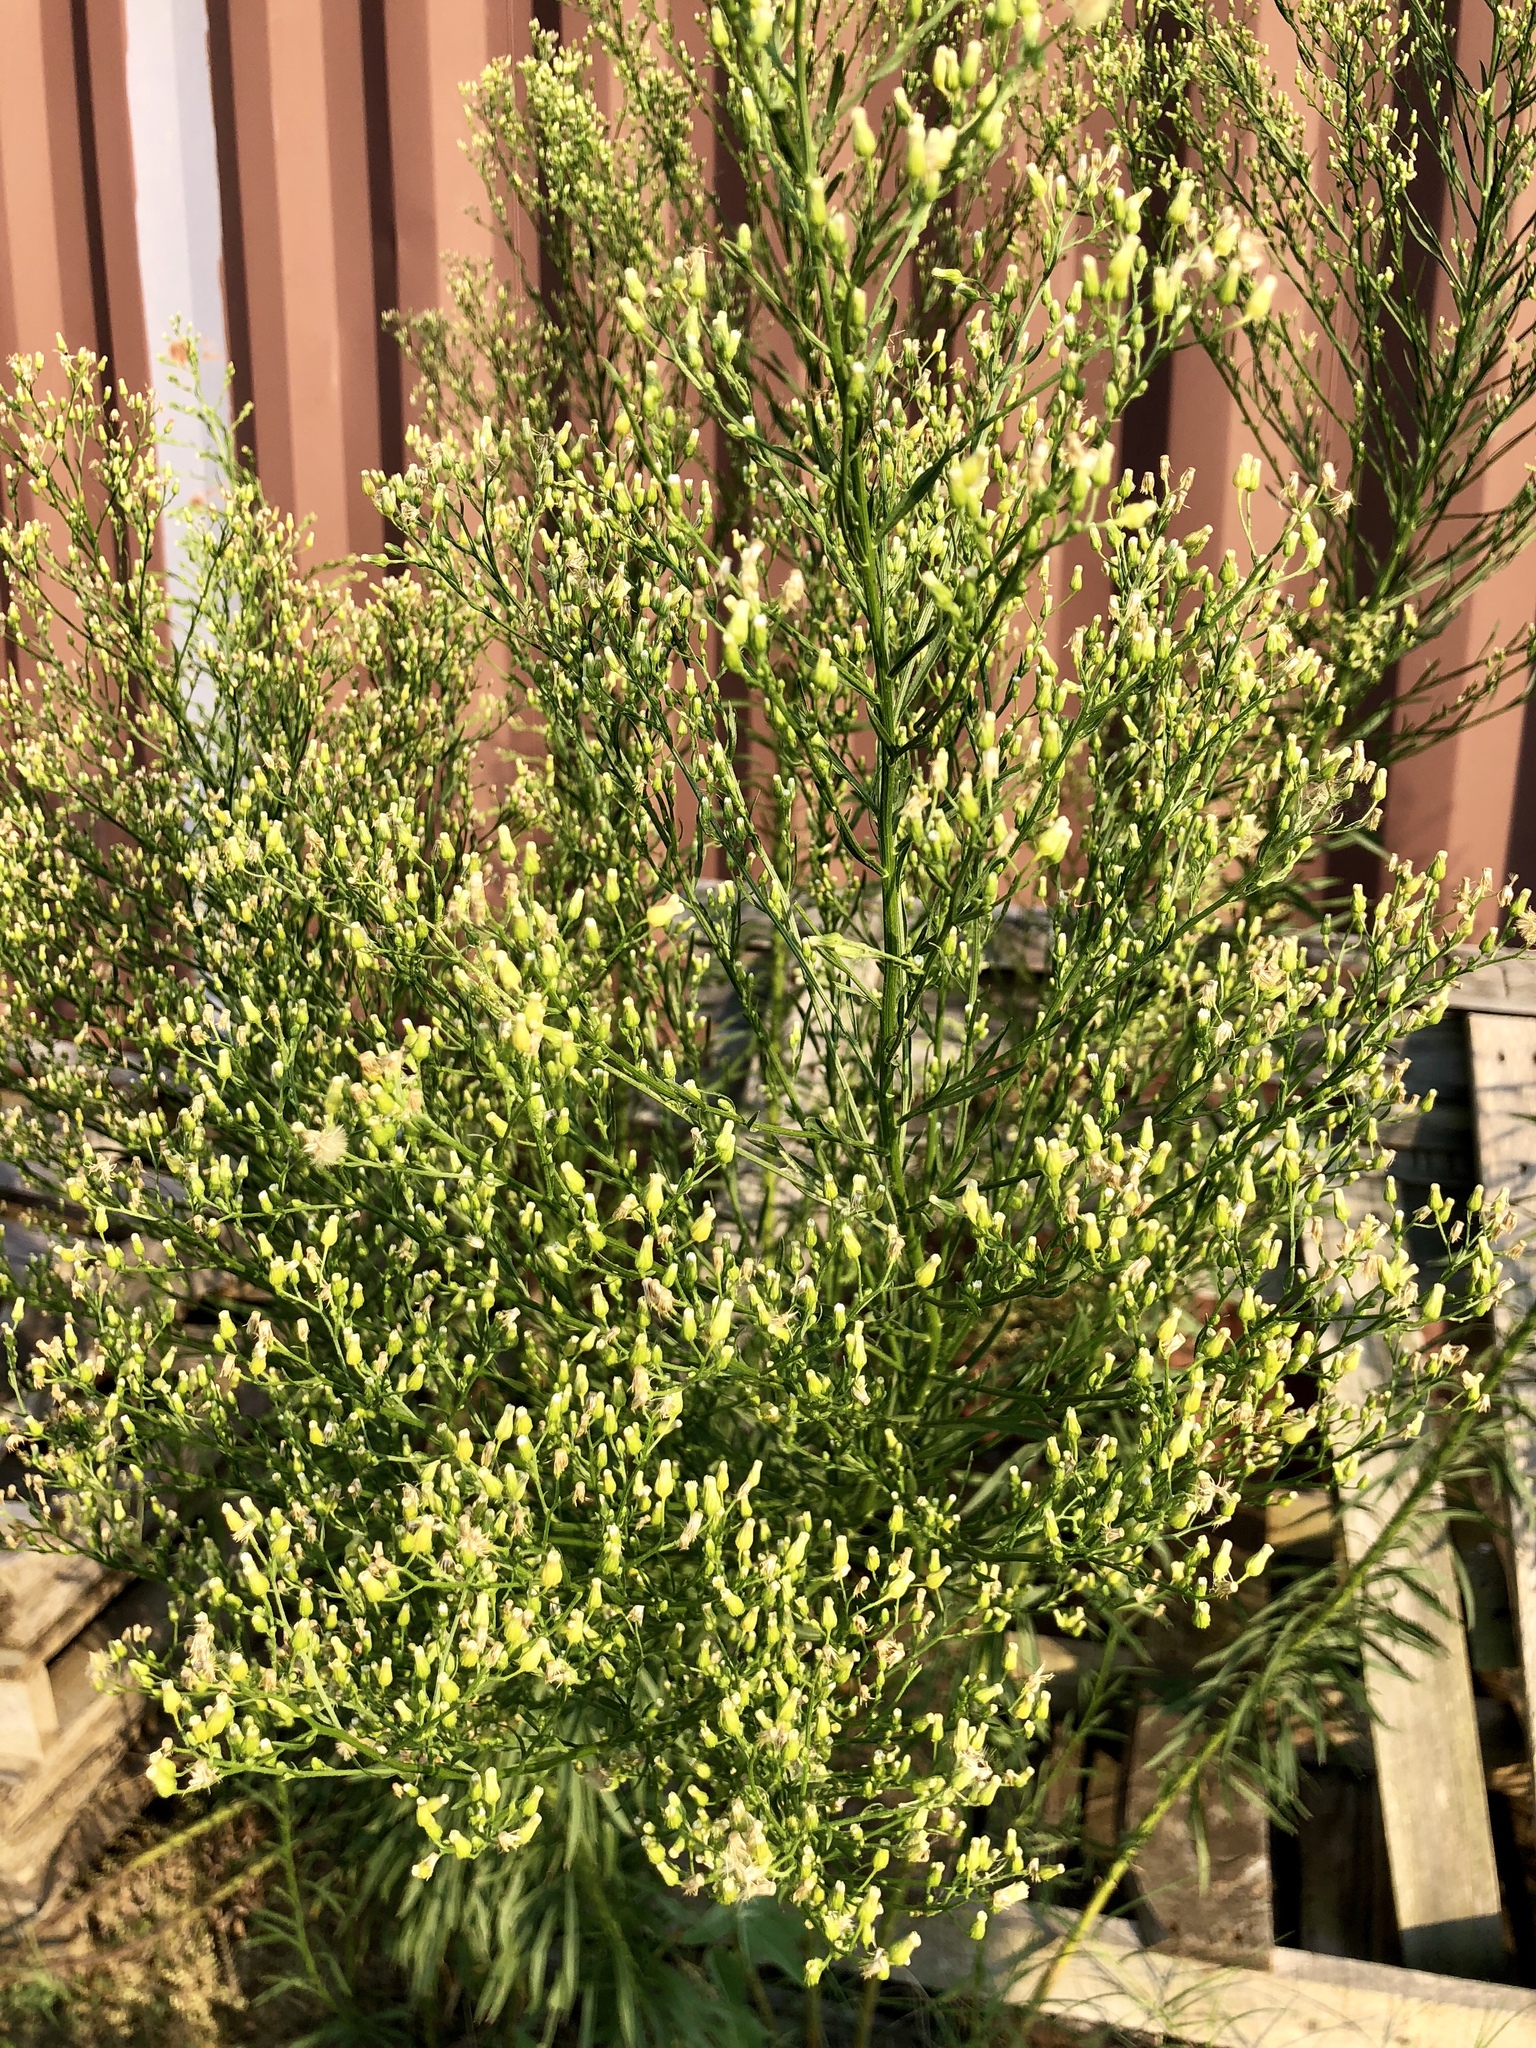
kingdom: Plantae
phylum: Tracheophyta
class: Magnoliopsida
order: Asterales
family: Asteraceae
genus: Erigeron
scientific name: Erigeron canadensis
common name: Canadian fleabane
